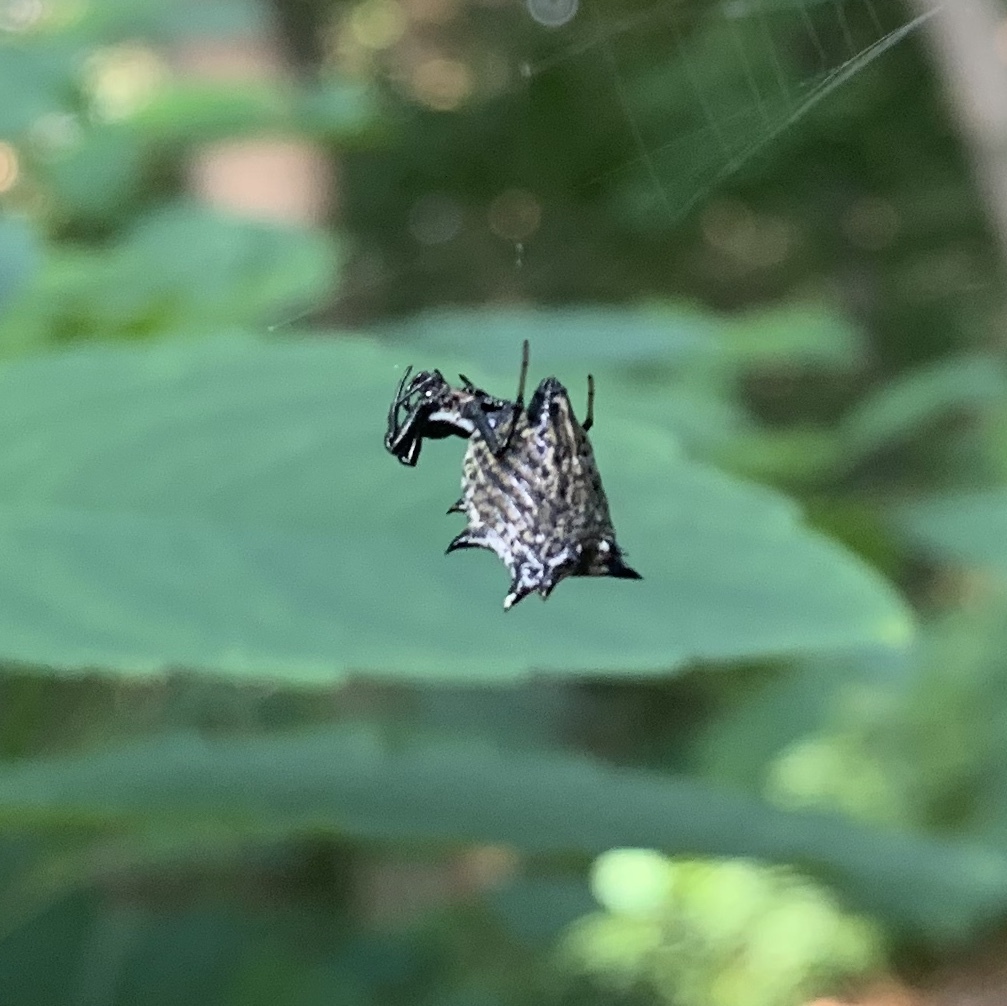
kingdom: Animalia
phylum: Arthropoda
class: Arachnida
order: Araneae
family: Araneidae
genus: Micrathena
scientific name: Micrathena gracilis
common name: Orb weavers
